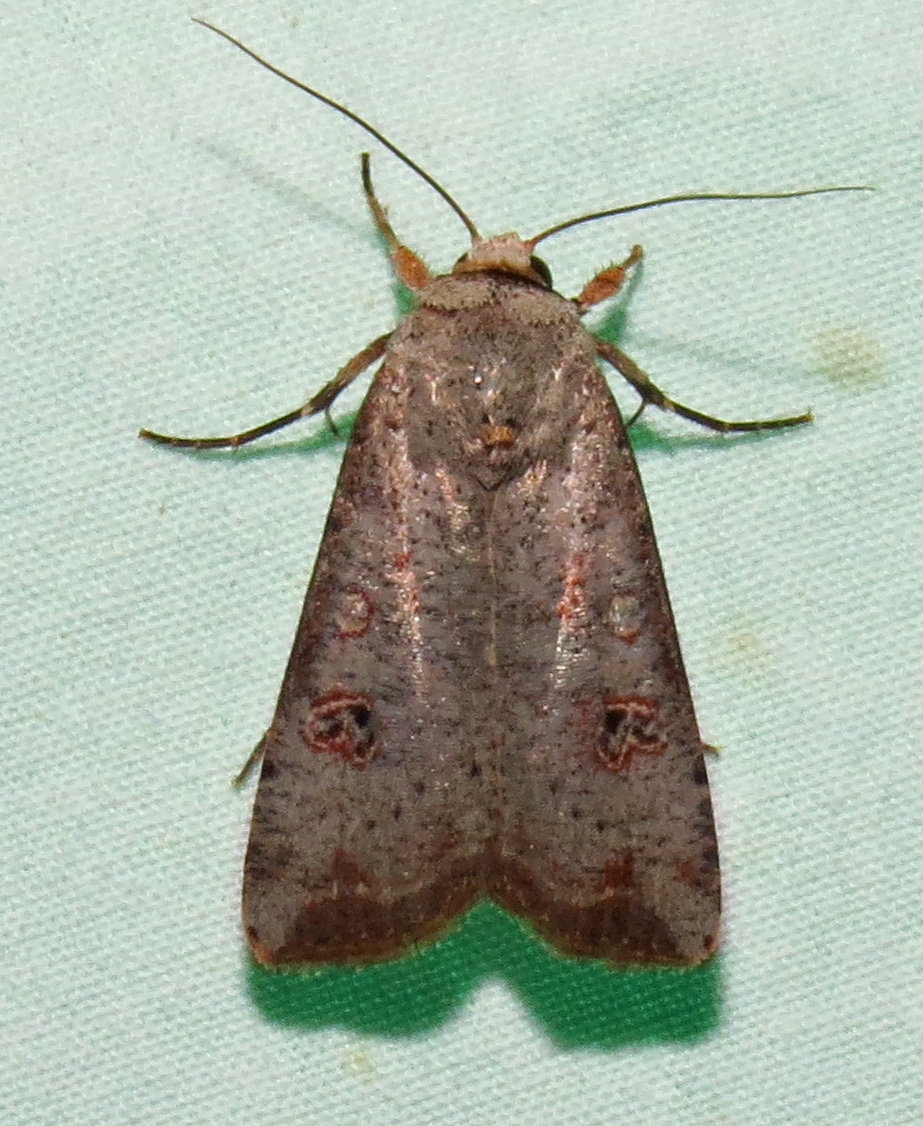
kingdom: Animalia
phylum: Arthropoda
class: Insecta
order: Lepidoptera
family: Noctuidae
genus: Anicla
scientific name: Anicla infecta
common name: Green cutworm
